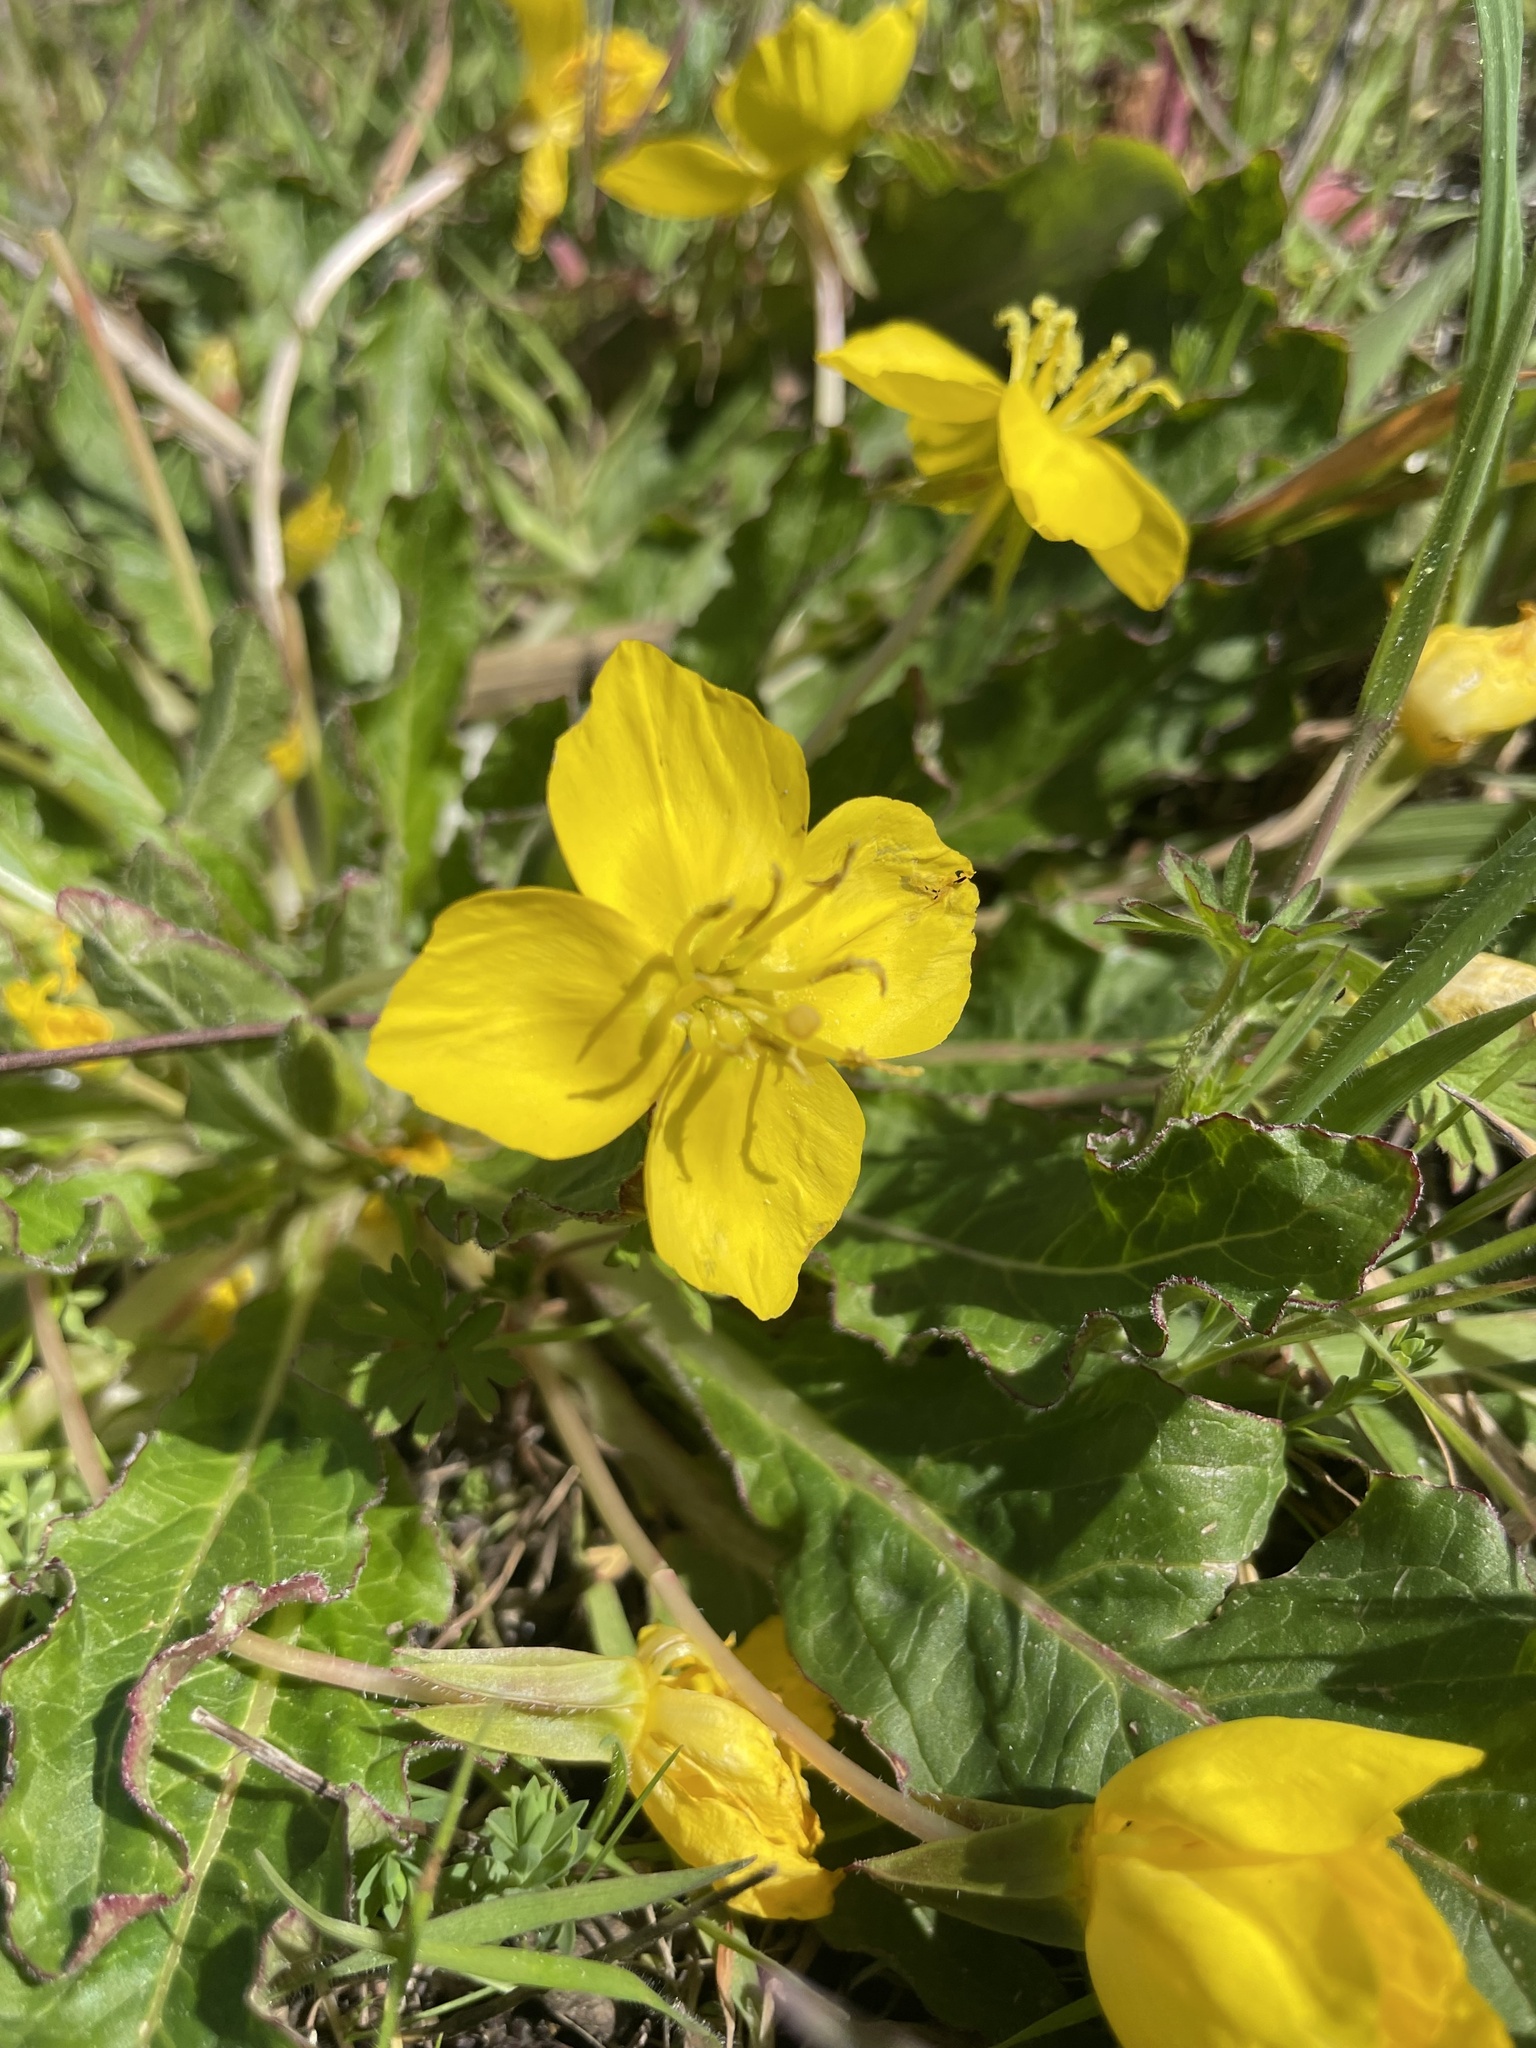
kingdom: Plantae
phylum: Tracheophyta
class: Magnoliopsida
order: Myrtales
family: Onagraceae
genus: Taraxia
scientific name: Taraxia ovata
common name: Goldeneggs
